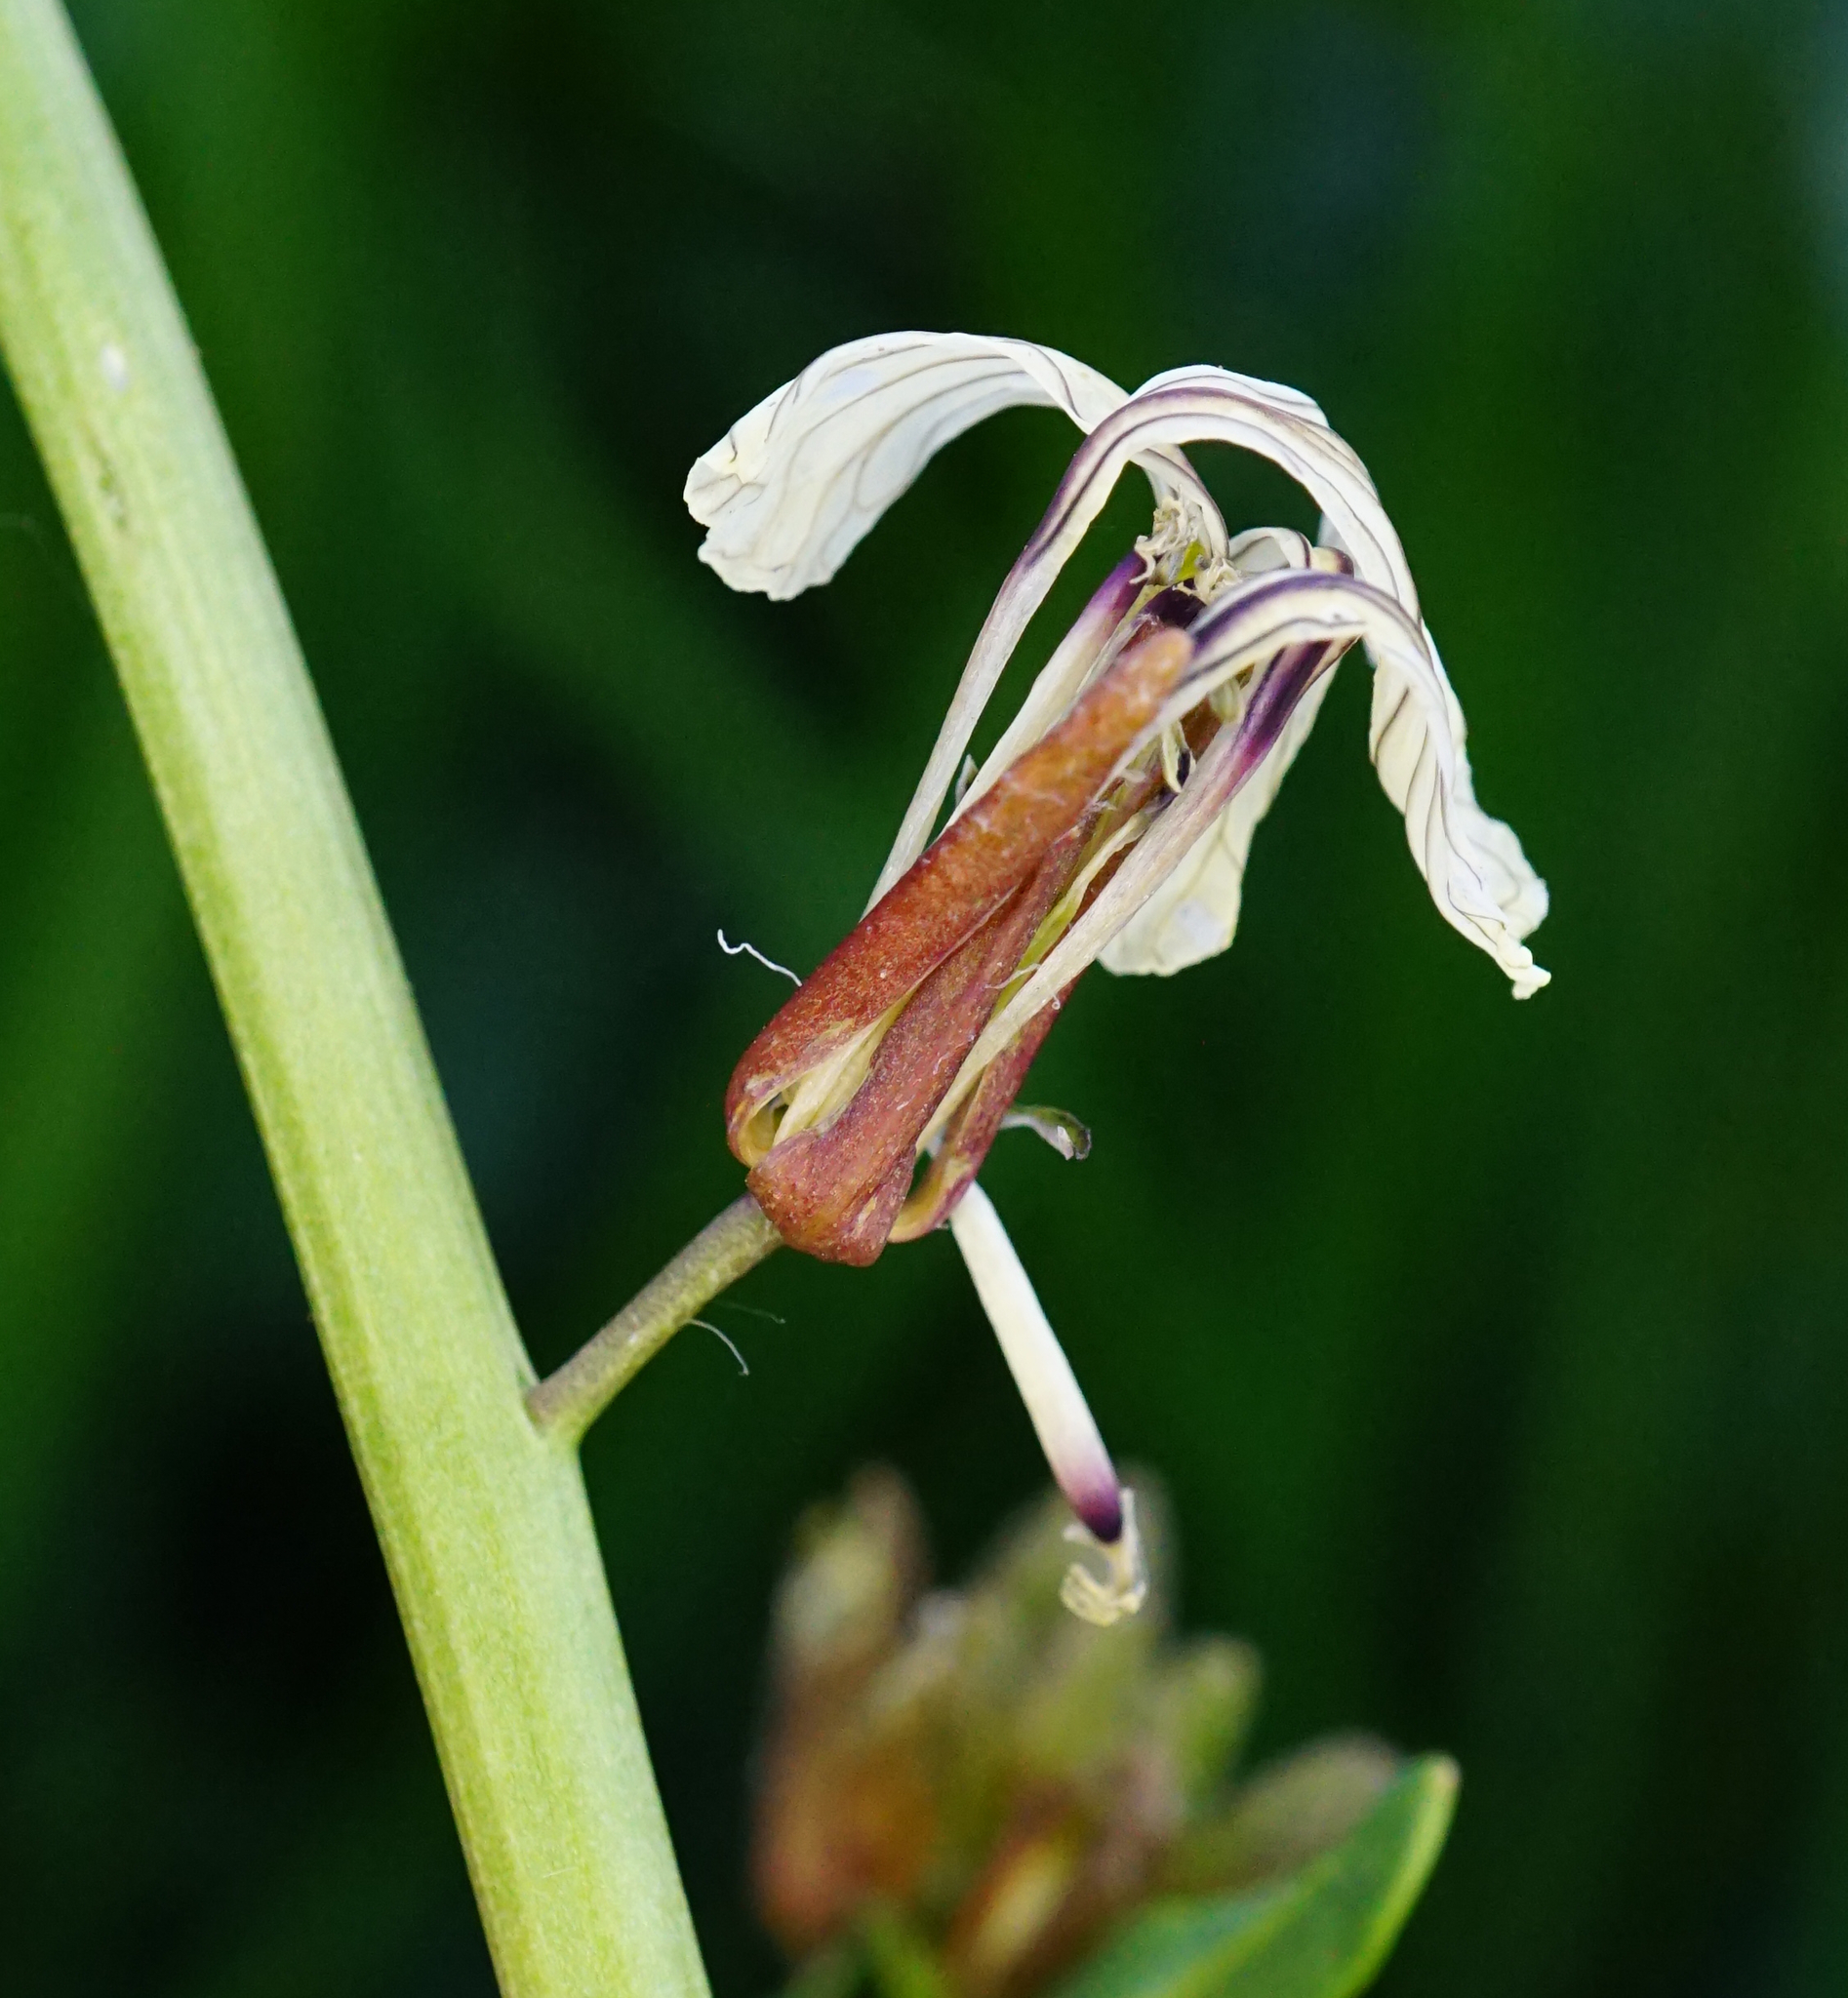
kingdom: Plantae
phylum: Tracheophyta
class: Magnoliopsida
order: Brassicales
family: Brassicaceae
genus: Eruca
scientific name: Eruca vesicaria
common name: Garden rocket
